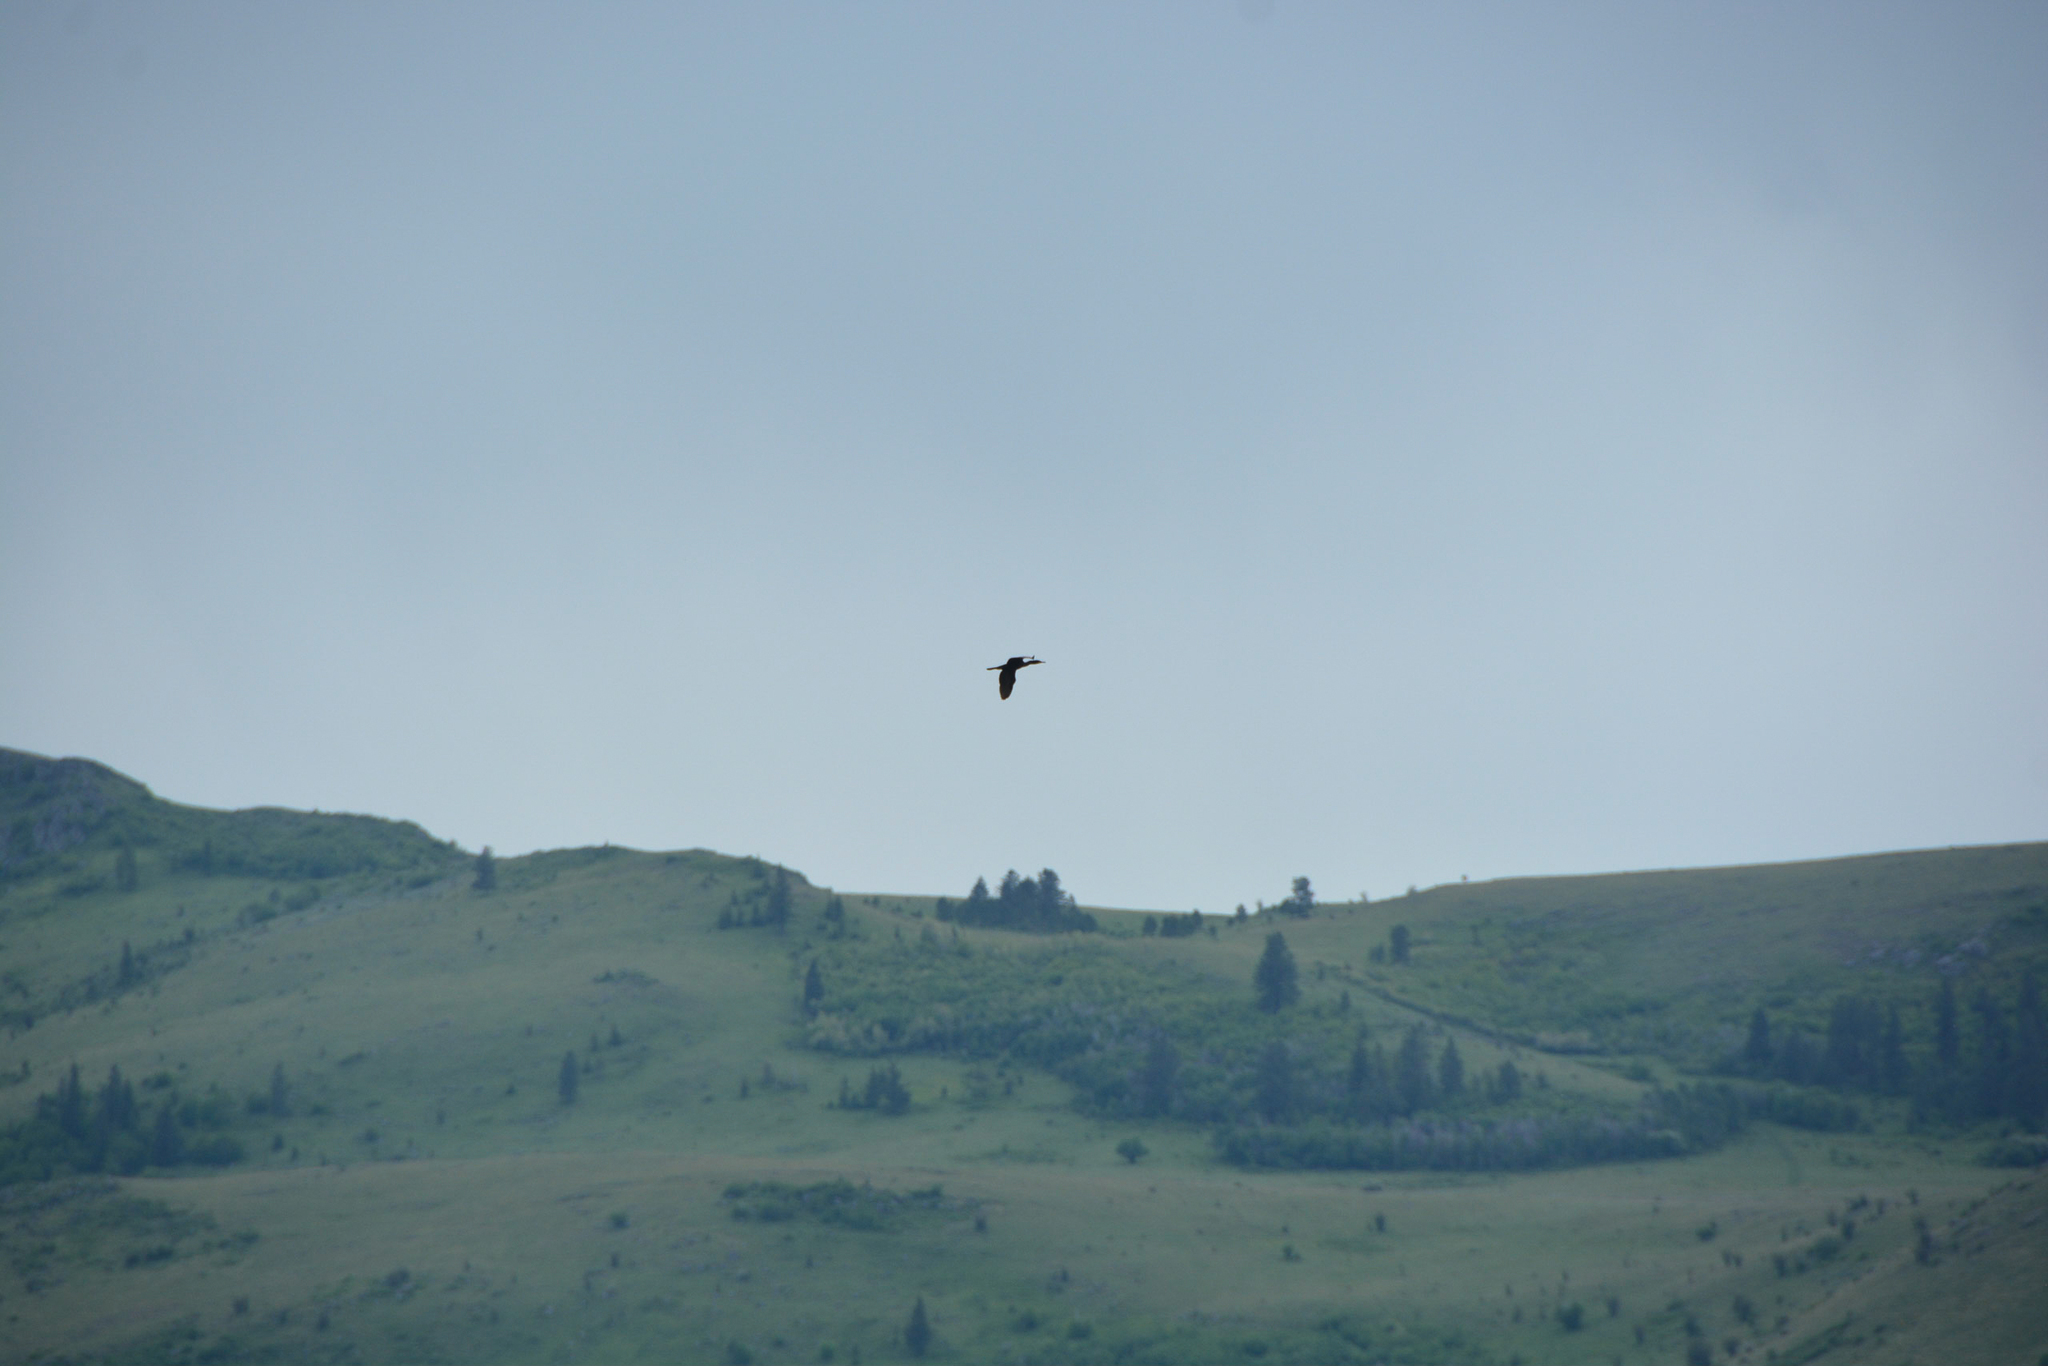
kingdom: Animalia
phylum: Chordata
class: Aves
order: Suliformes
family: Phalacrocoracidae
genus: Phalacrocorax
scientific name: Phalacrocorax auritus
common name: Double-crested cormorant
